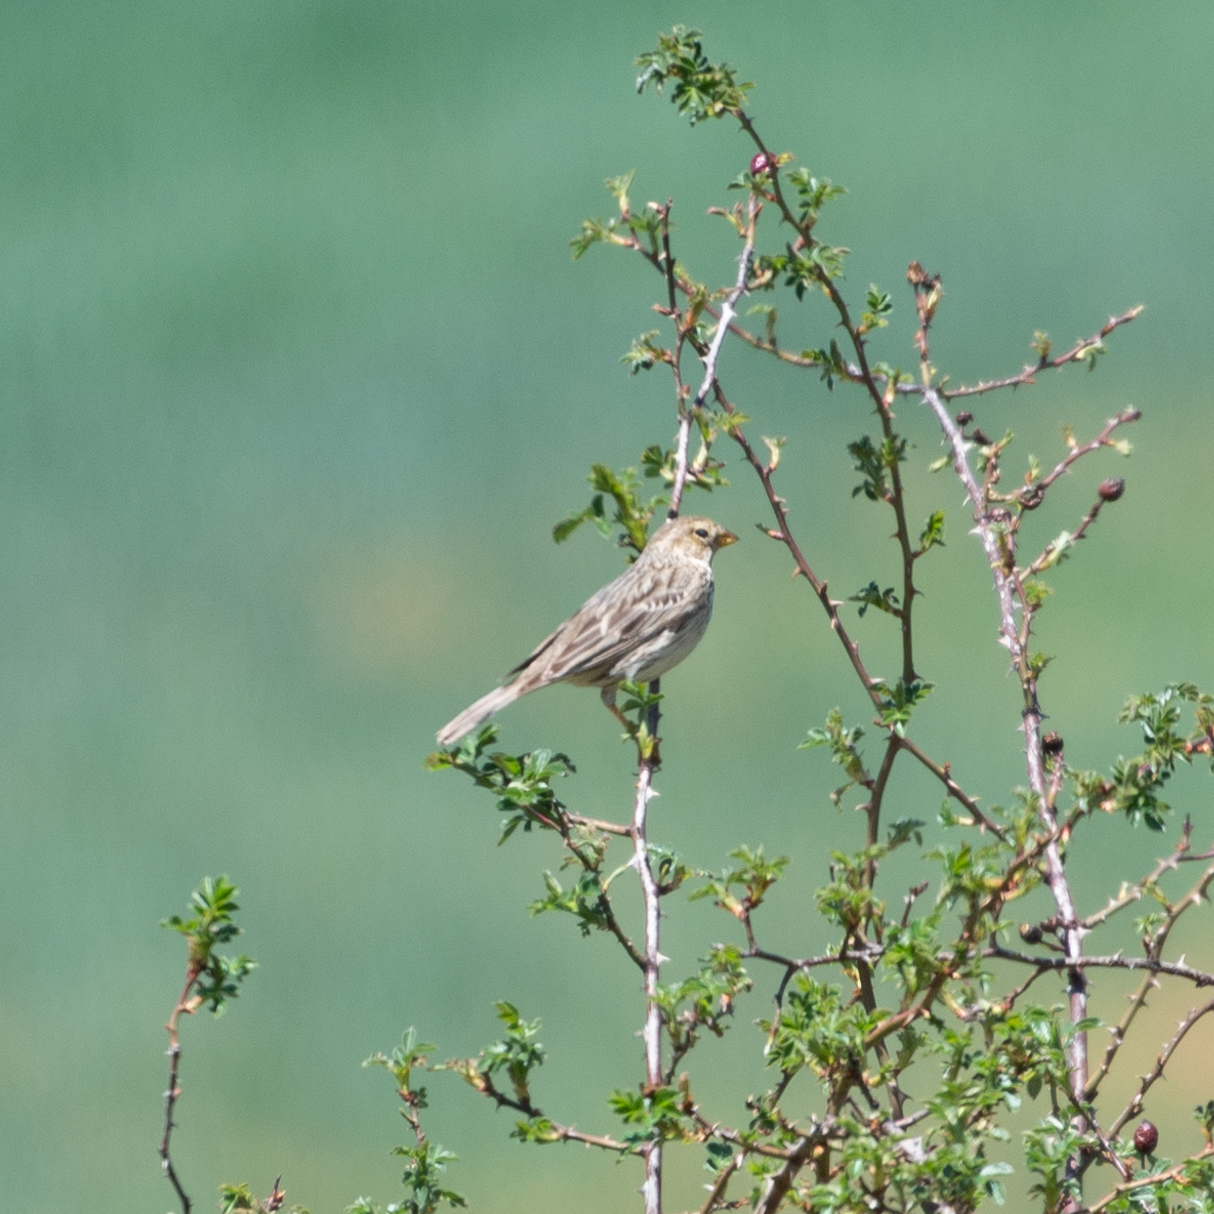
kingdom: Animalia
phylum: Chordata
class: Aves
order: Passeriformes
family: Emberizidae
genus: Emberiza
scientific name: Emberiza calandra
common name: Corn bunting
